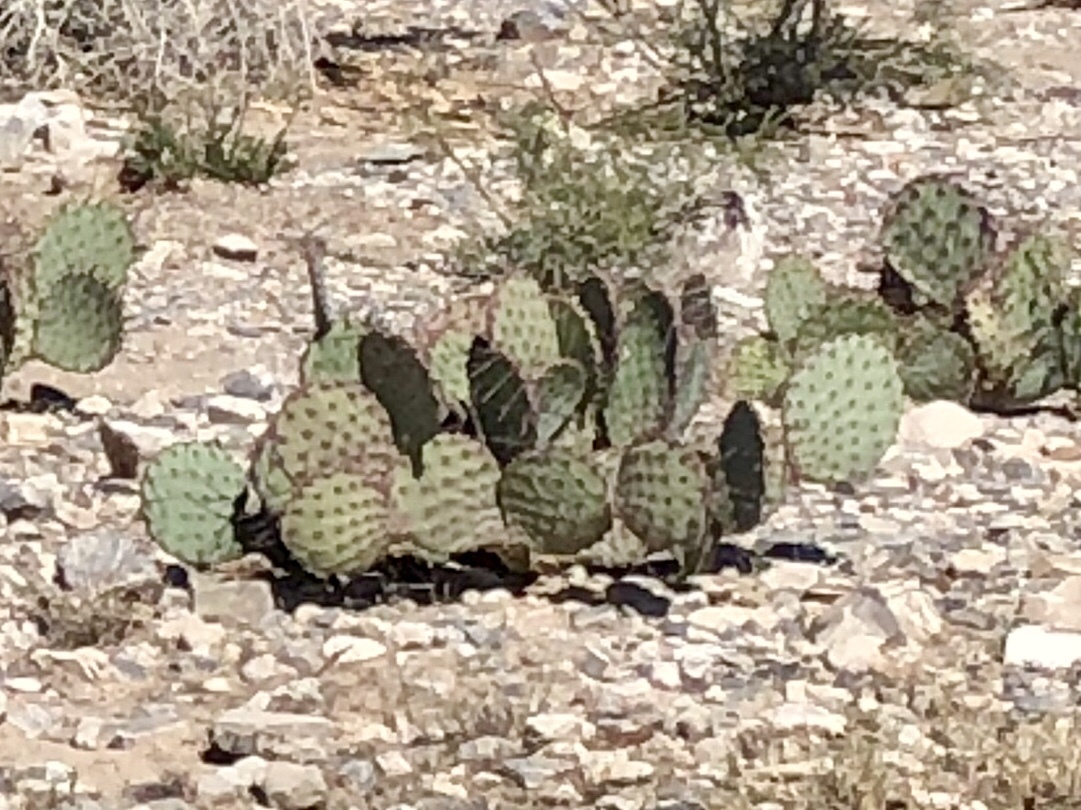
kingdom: Plantae
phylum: Tracheophyta
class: Magnoliopsida
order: Caryophyllales
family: Cactaceae
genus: Opuntia
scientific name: Opuntia macrocentra
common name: Purple prickly-pear
